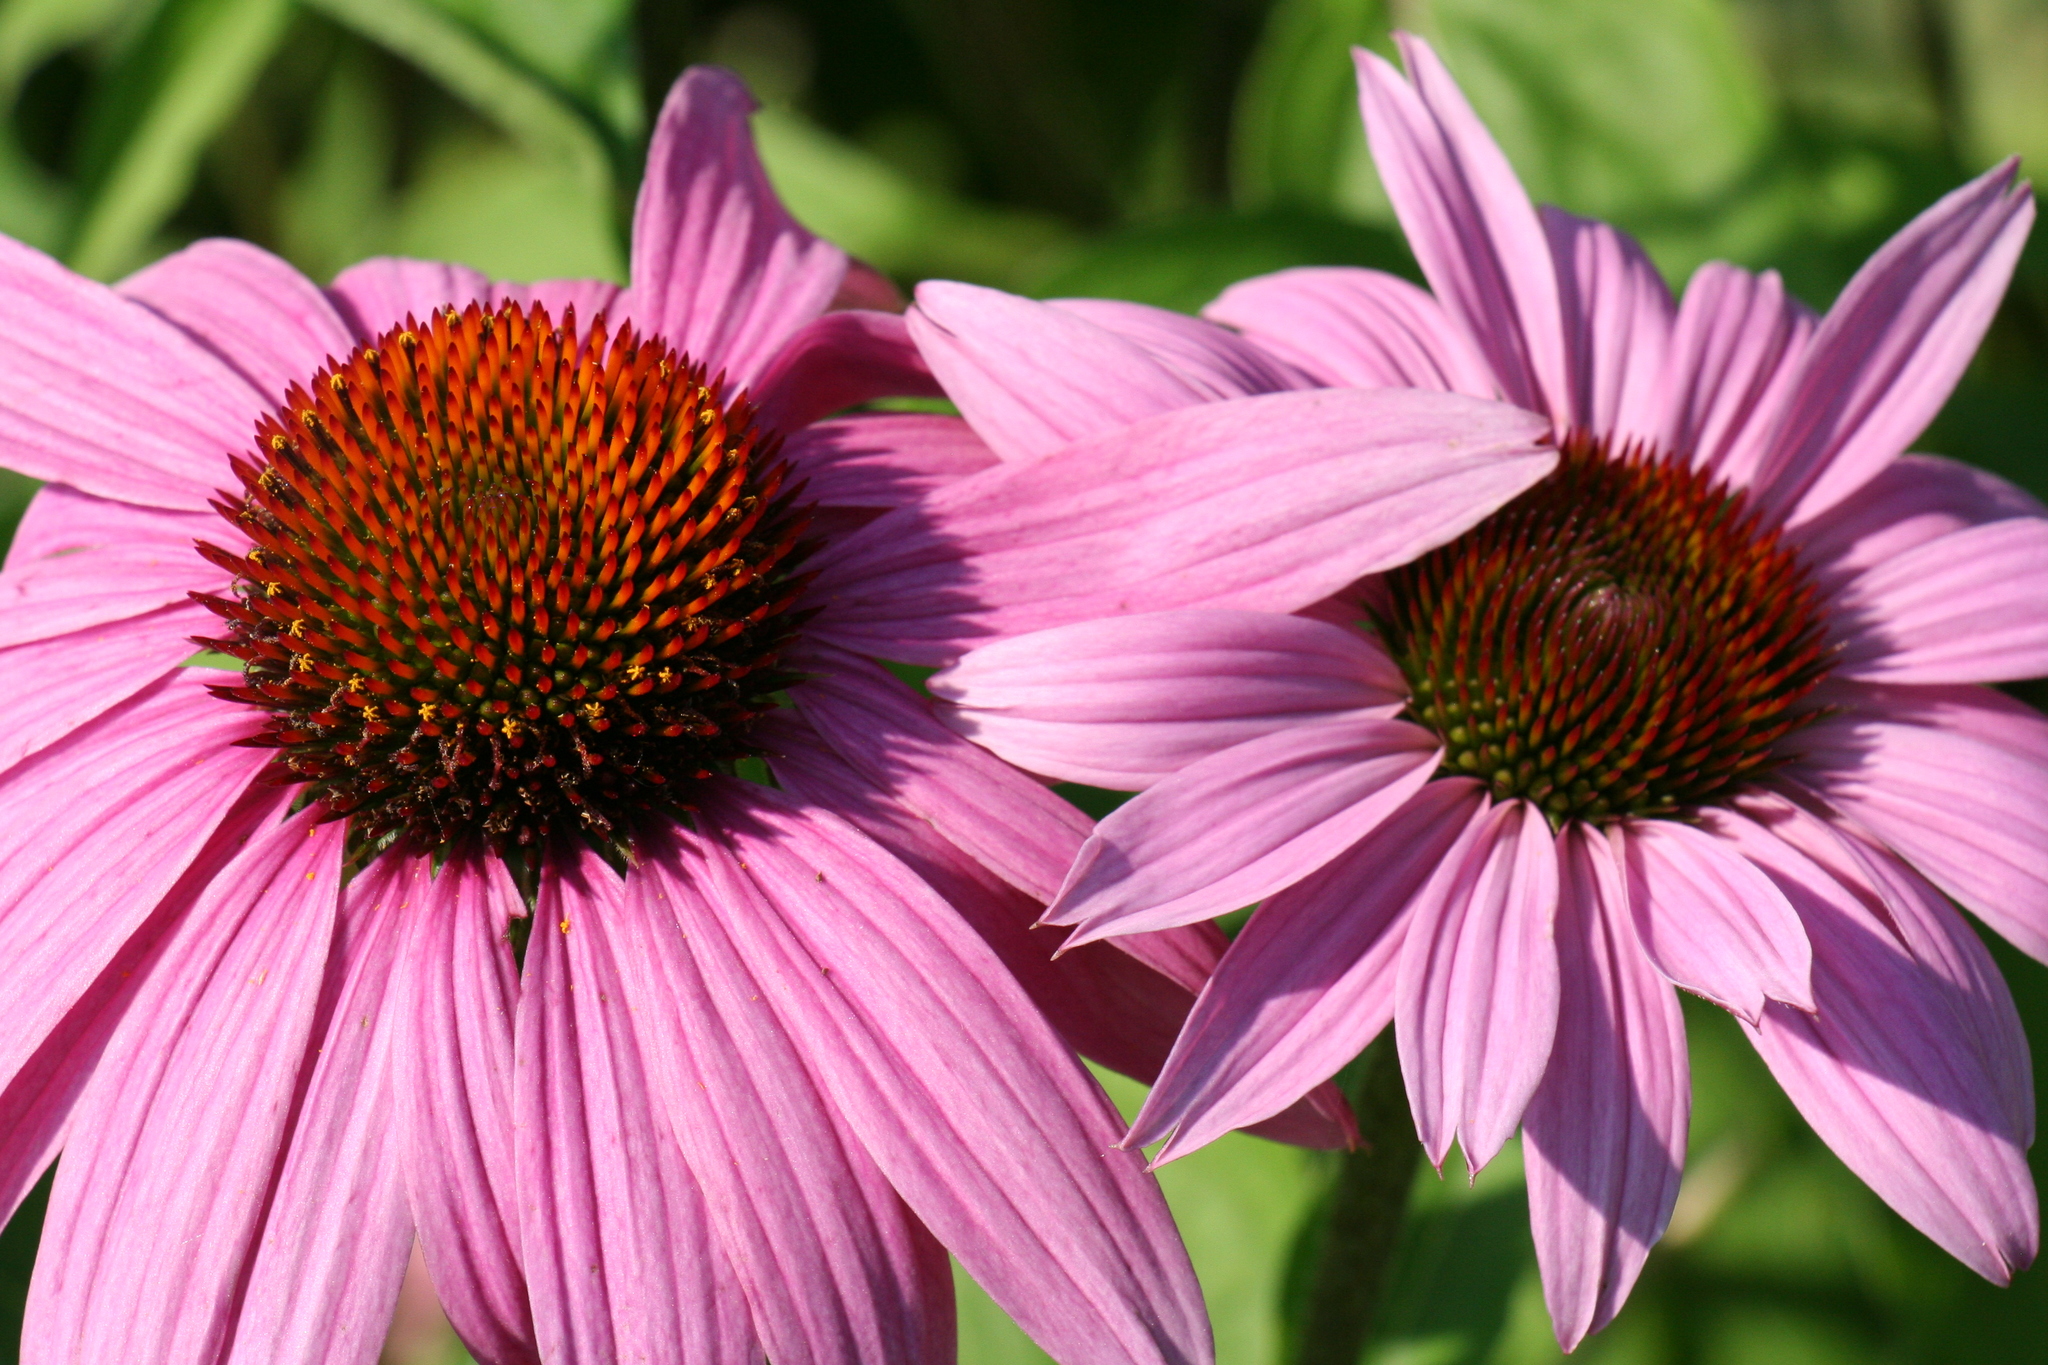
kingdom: Plantae
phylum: Tracheophyta
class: Magnoliopsida
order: Asterales
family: Asteraceae
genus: Echinacea
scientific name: Echinacea purpurea
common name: Broad-leaved purple coneflower
